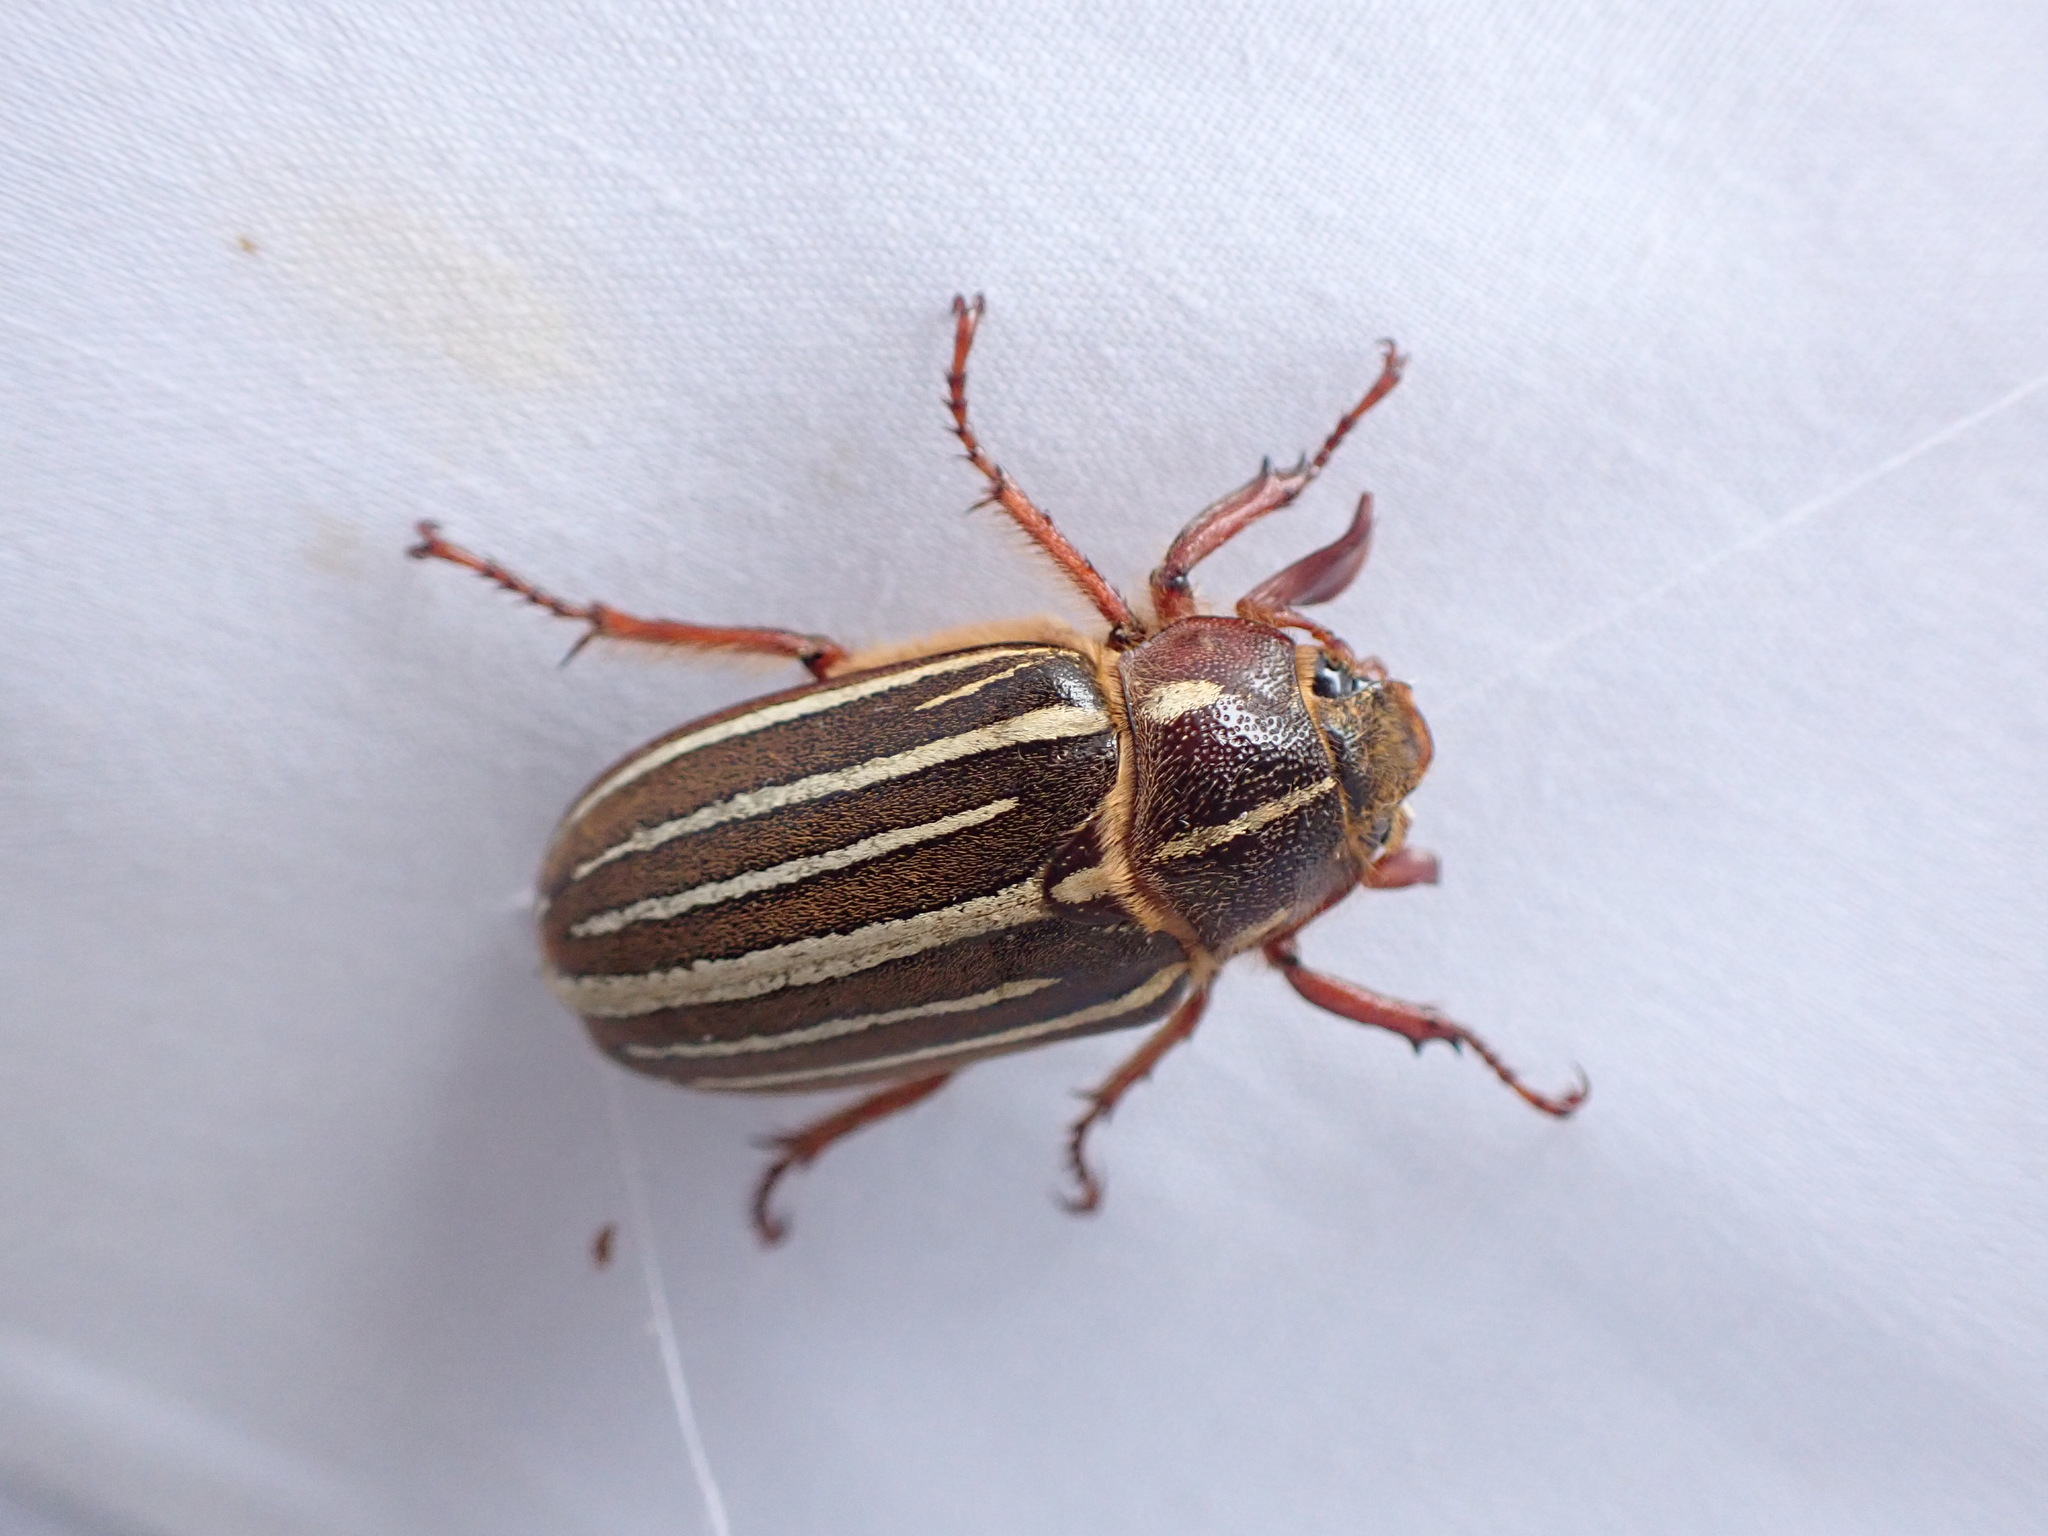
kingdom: Animalia
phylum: Arthropoda
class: Insecta
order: Coleoptera
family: Scarabaeidae
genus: Polyphylla
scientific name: Polyphylla crinita
